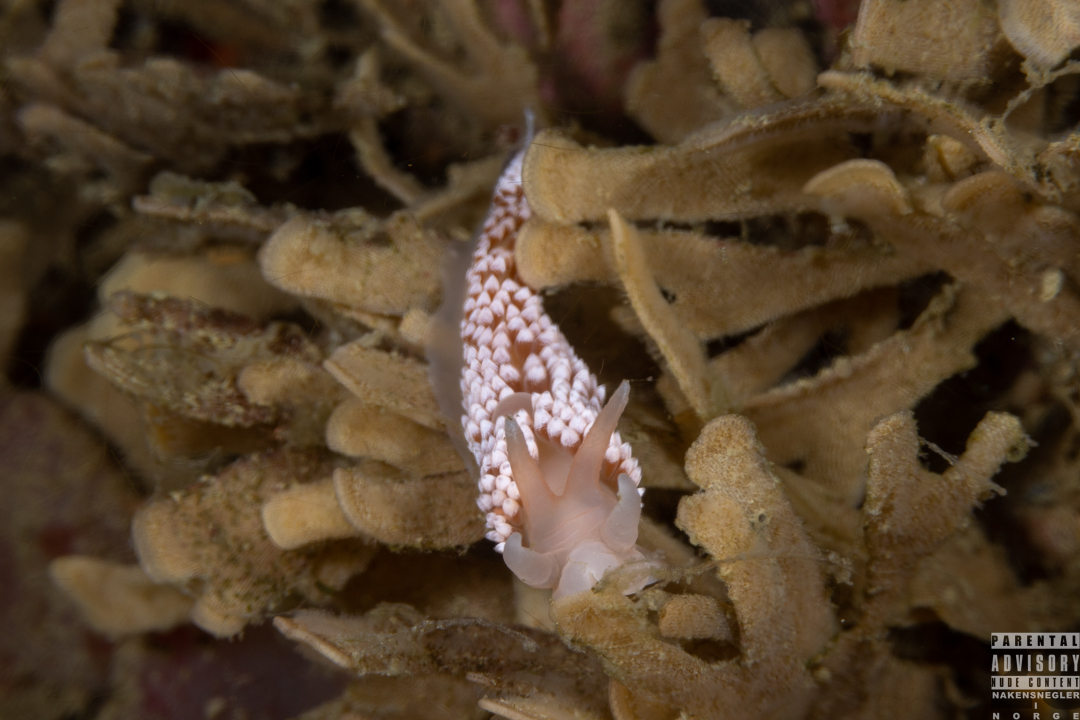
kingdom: Animalia
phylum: Mollusca
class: Gastropoda
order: Nudibranchia
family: Coryphellidae
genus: Coryphella
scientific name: Coryphella verrucosa
